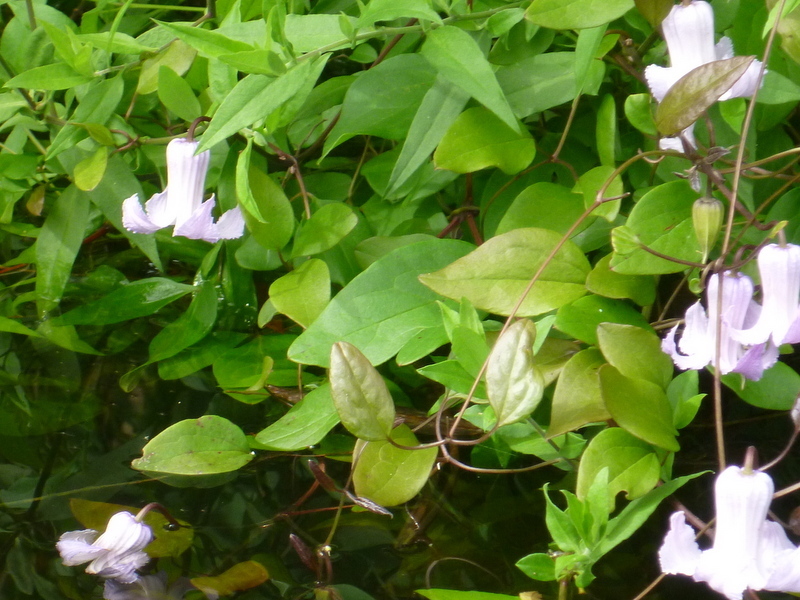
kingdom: Plantae
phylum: Tracheophyta
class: Magnoliopsida
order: Ranunculales
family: Ranunculaceae
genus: Clematis
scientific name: Clematis crispa
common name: Curly clematis
